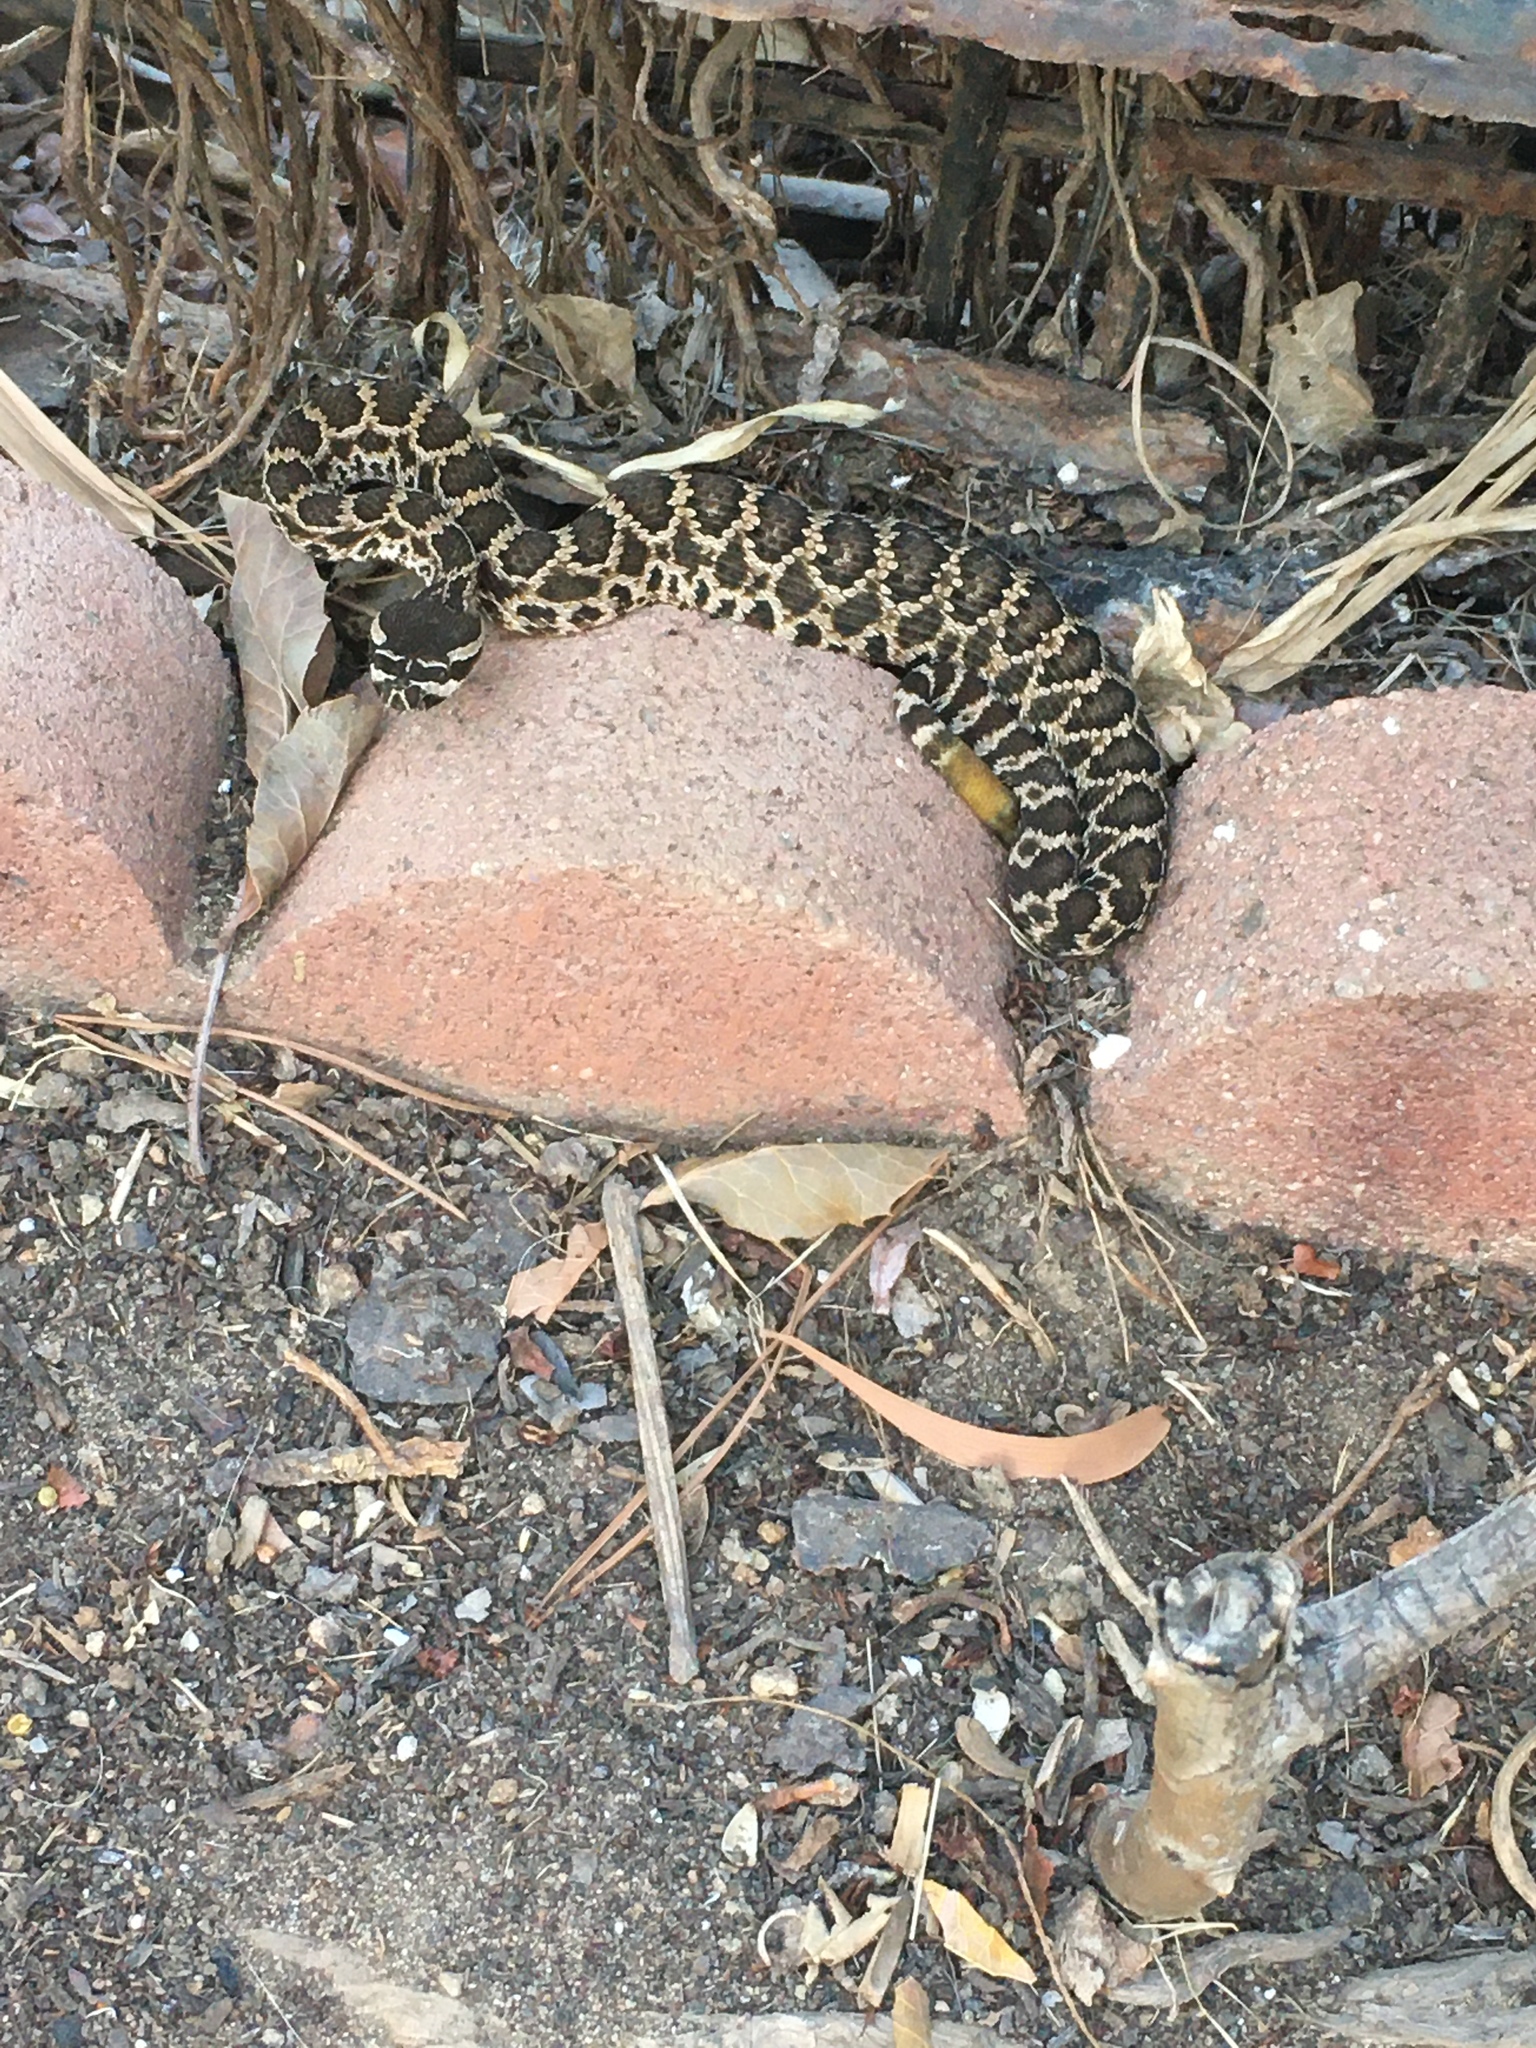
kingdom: Animalia
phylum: Chordata
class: Squamata
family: Viperidae
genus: Crotalus
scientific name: Crotalus oreganus
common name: Abyssus
